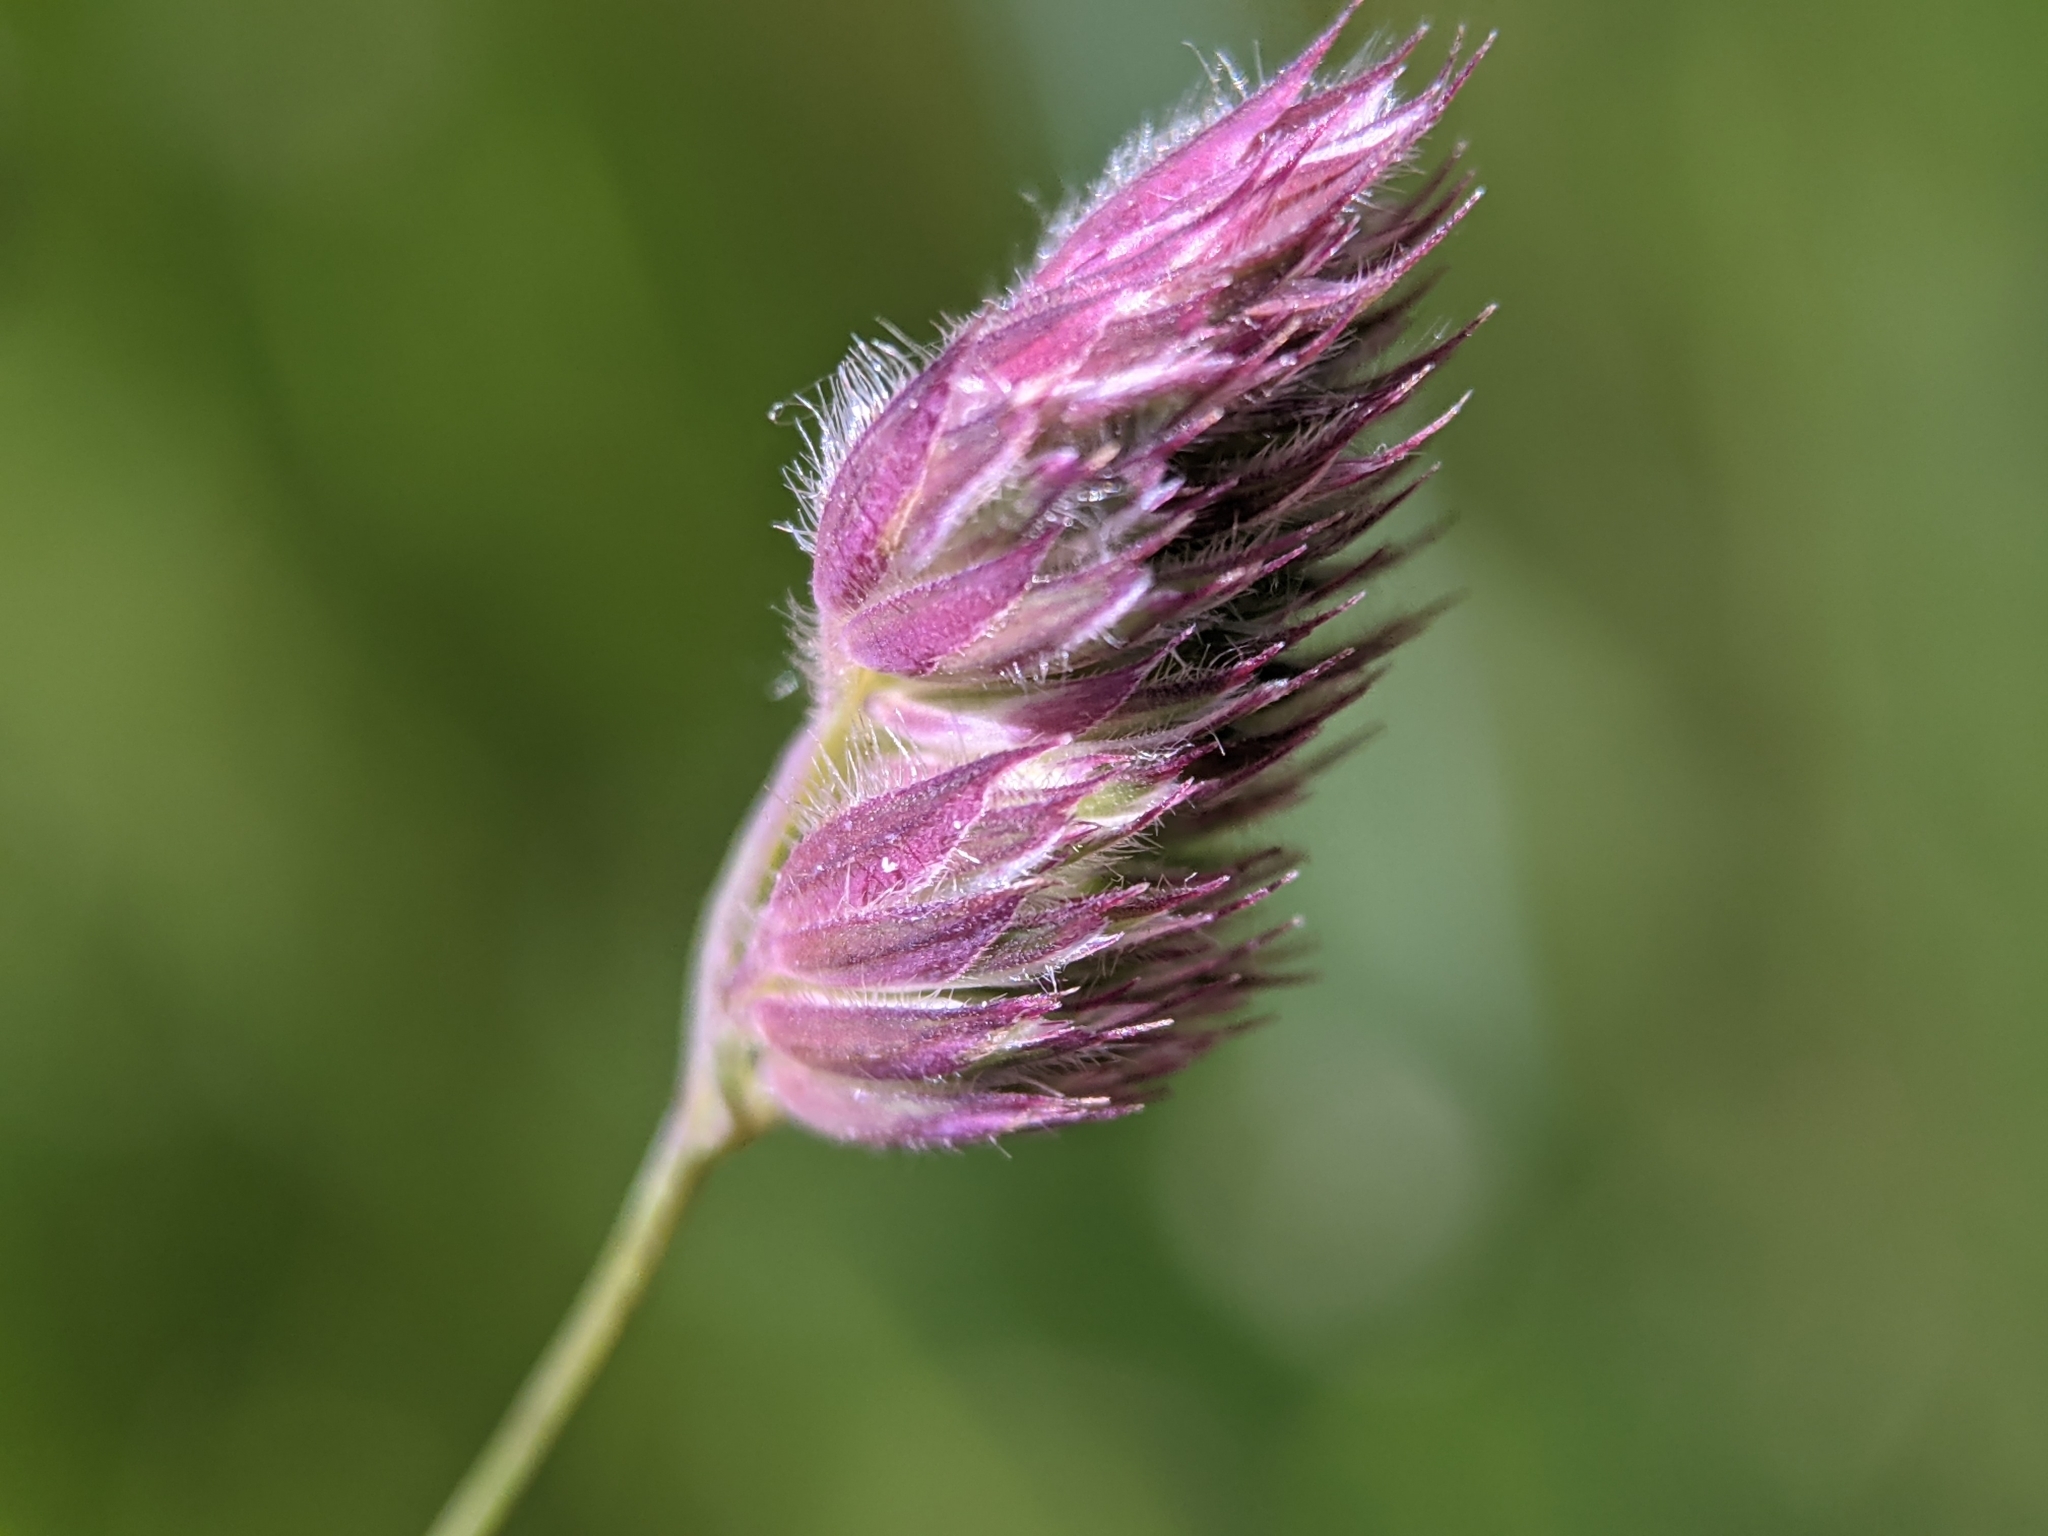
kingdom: Plantae
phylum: Tracheophyta
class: Liliopsida
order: Poales
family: Poaceae
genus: Dactylis
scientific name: Dactylis glomerata
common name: Orchardgrass
